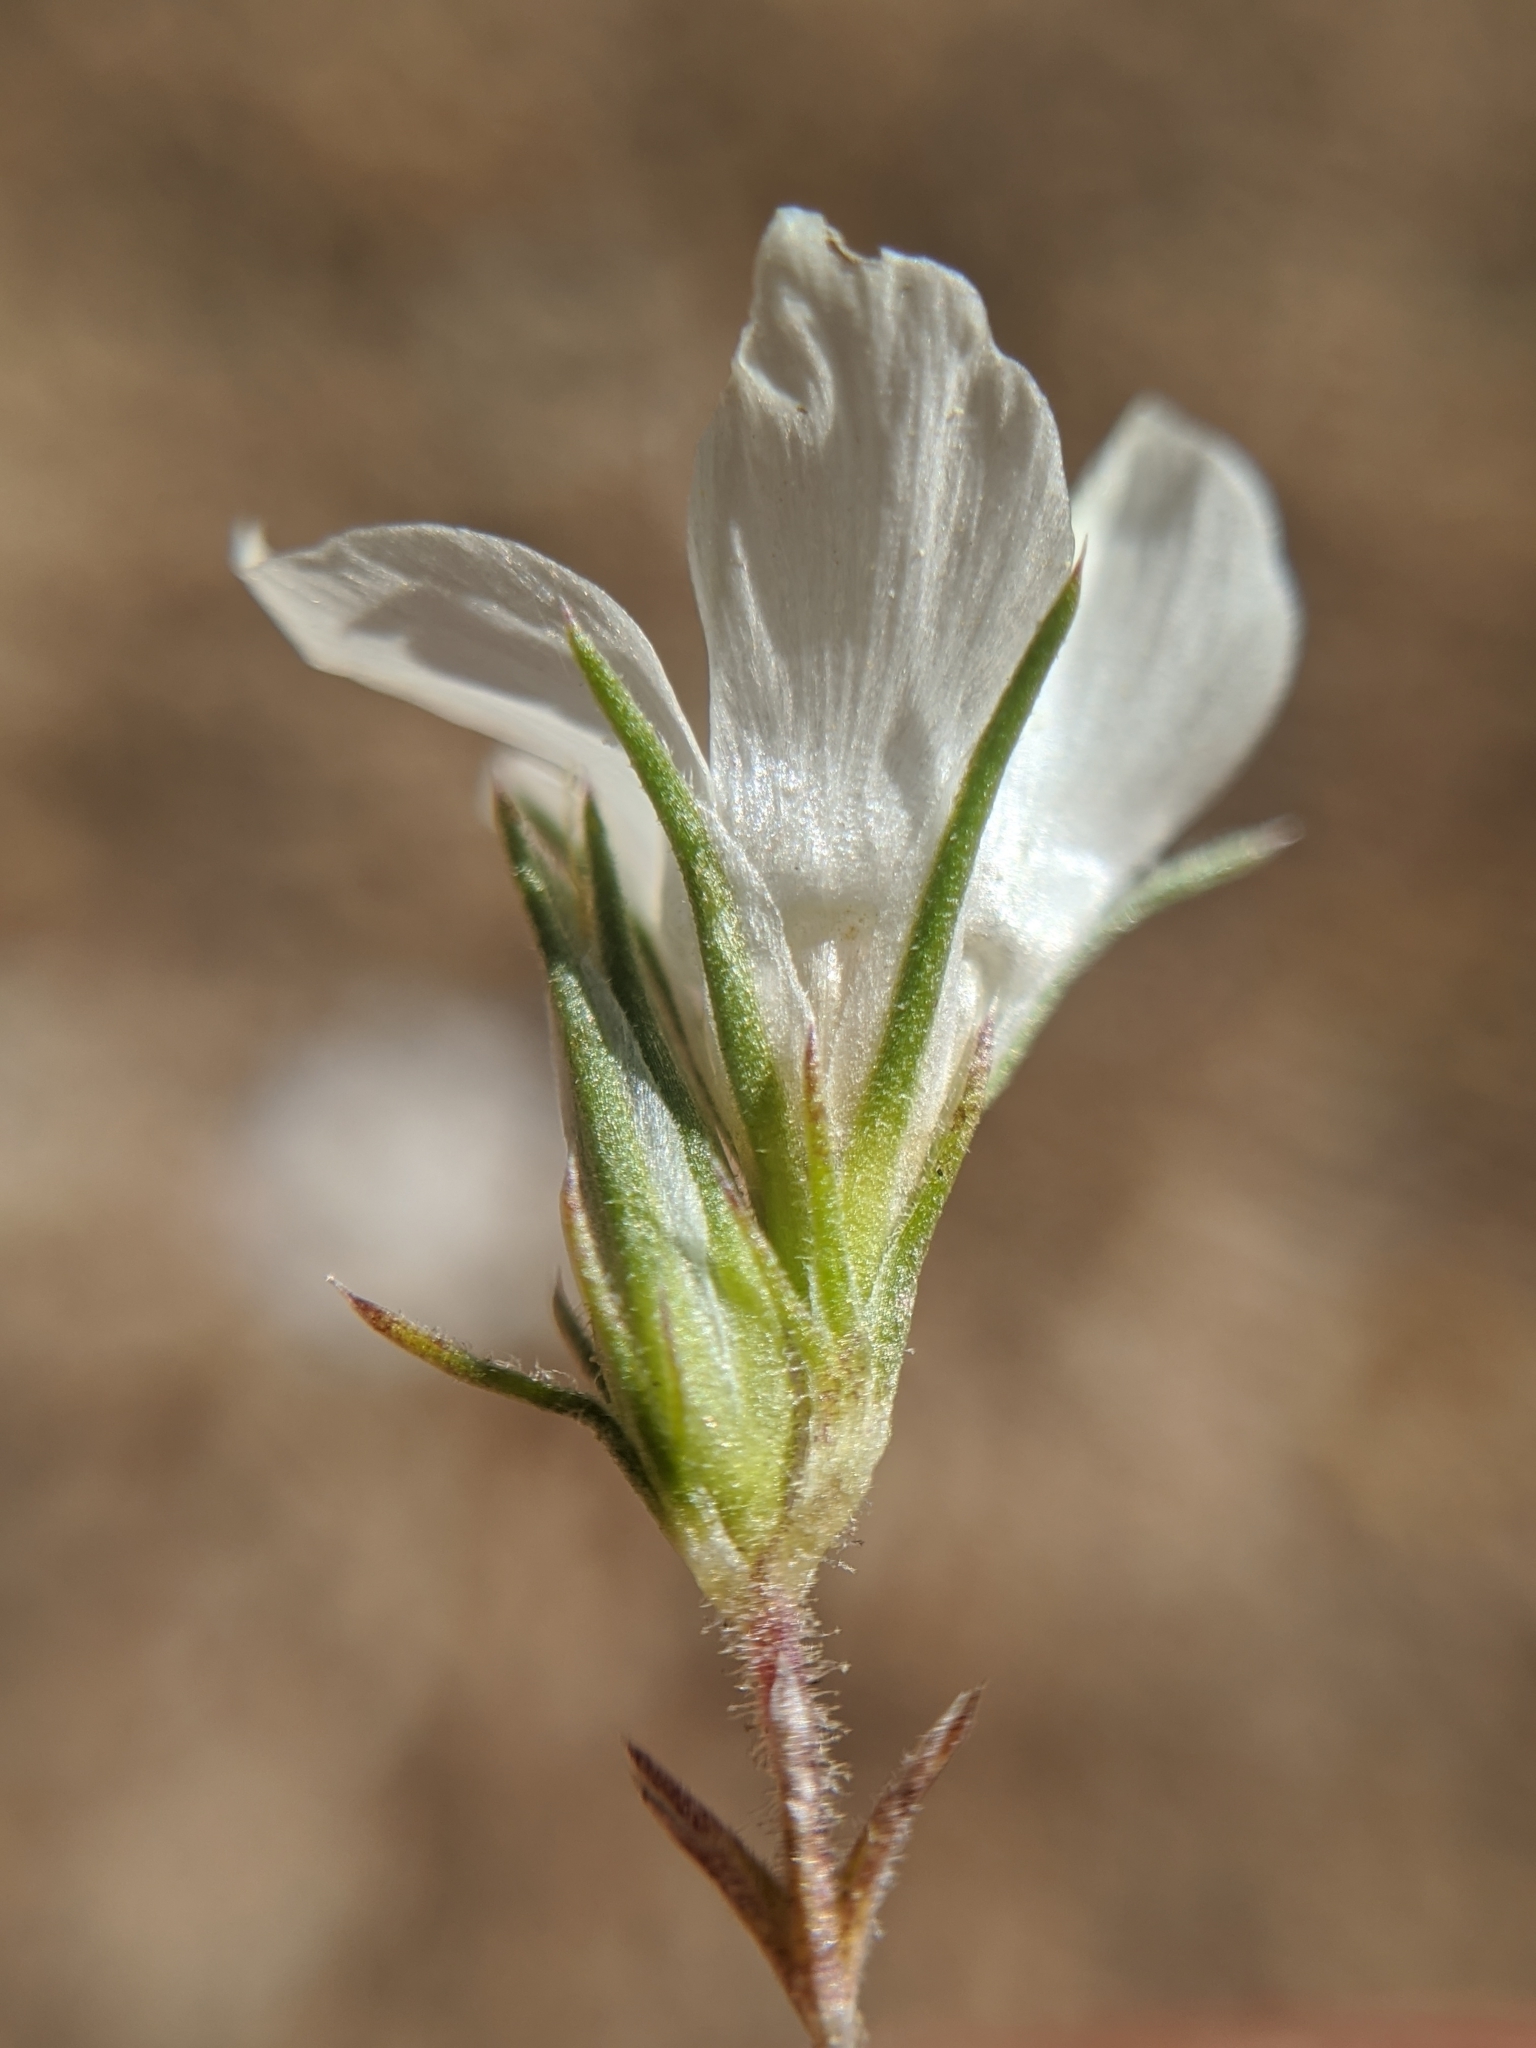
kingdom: Plantae
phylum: Tracheophyta
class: Magnoliopsida
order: Ericales
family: Polemoniaceae
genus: Linanthus
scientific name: Linanthus parryae
